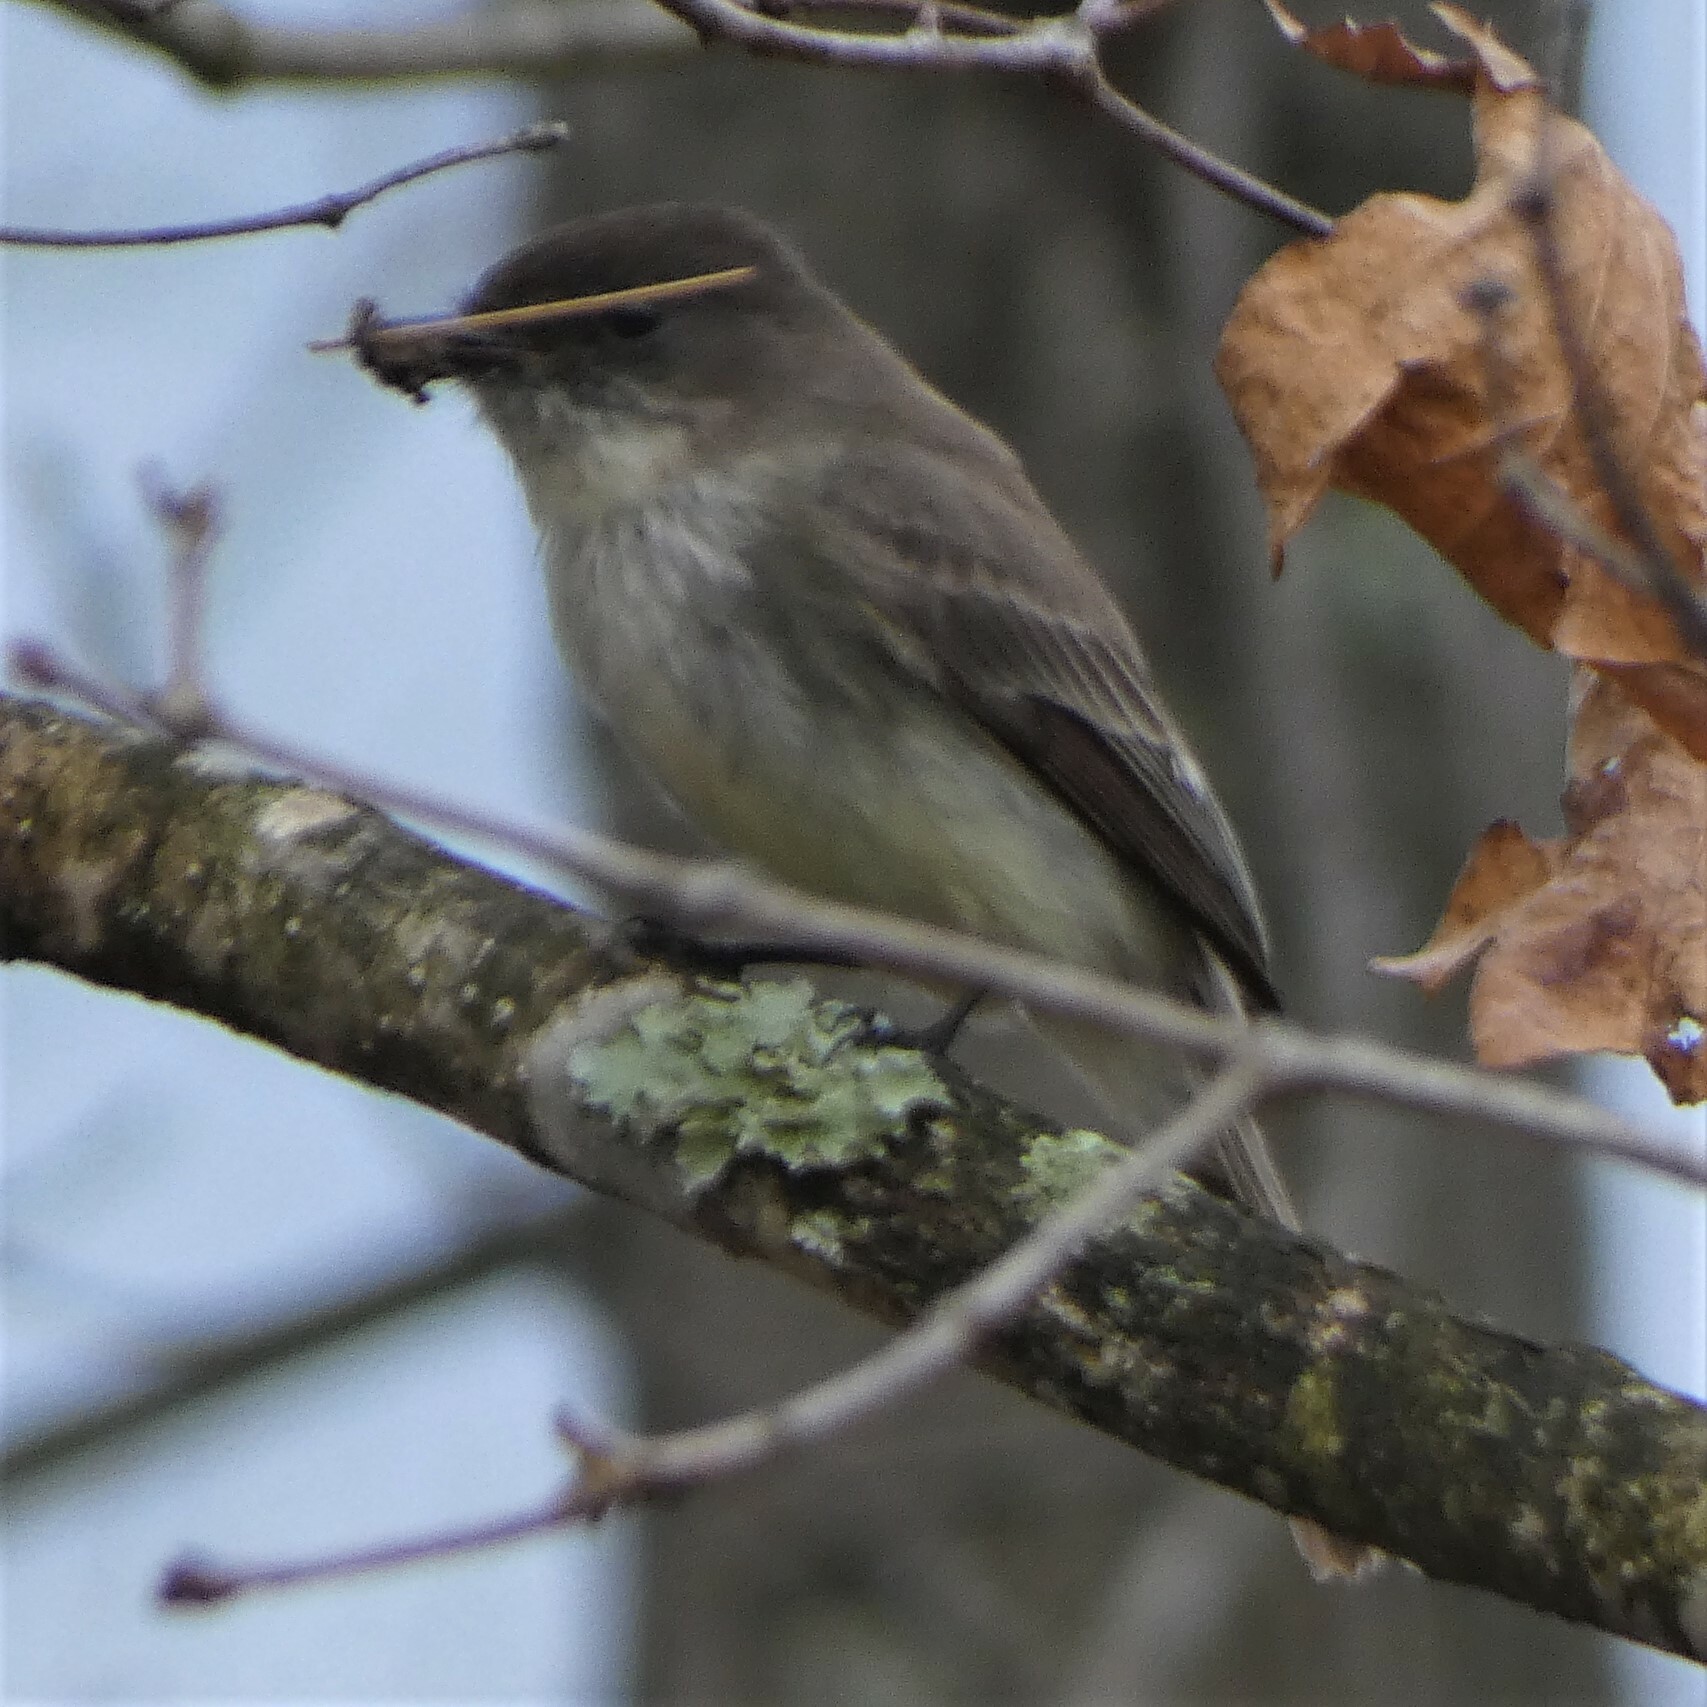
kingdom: Animalia
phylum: Chordata
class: Aves
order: Passeriformes
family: Tyrannidae
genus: Sayornis
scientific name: Sayornis phoebe
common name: Eastern phoebe
